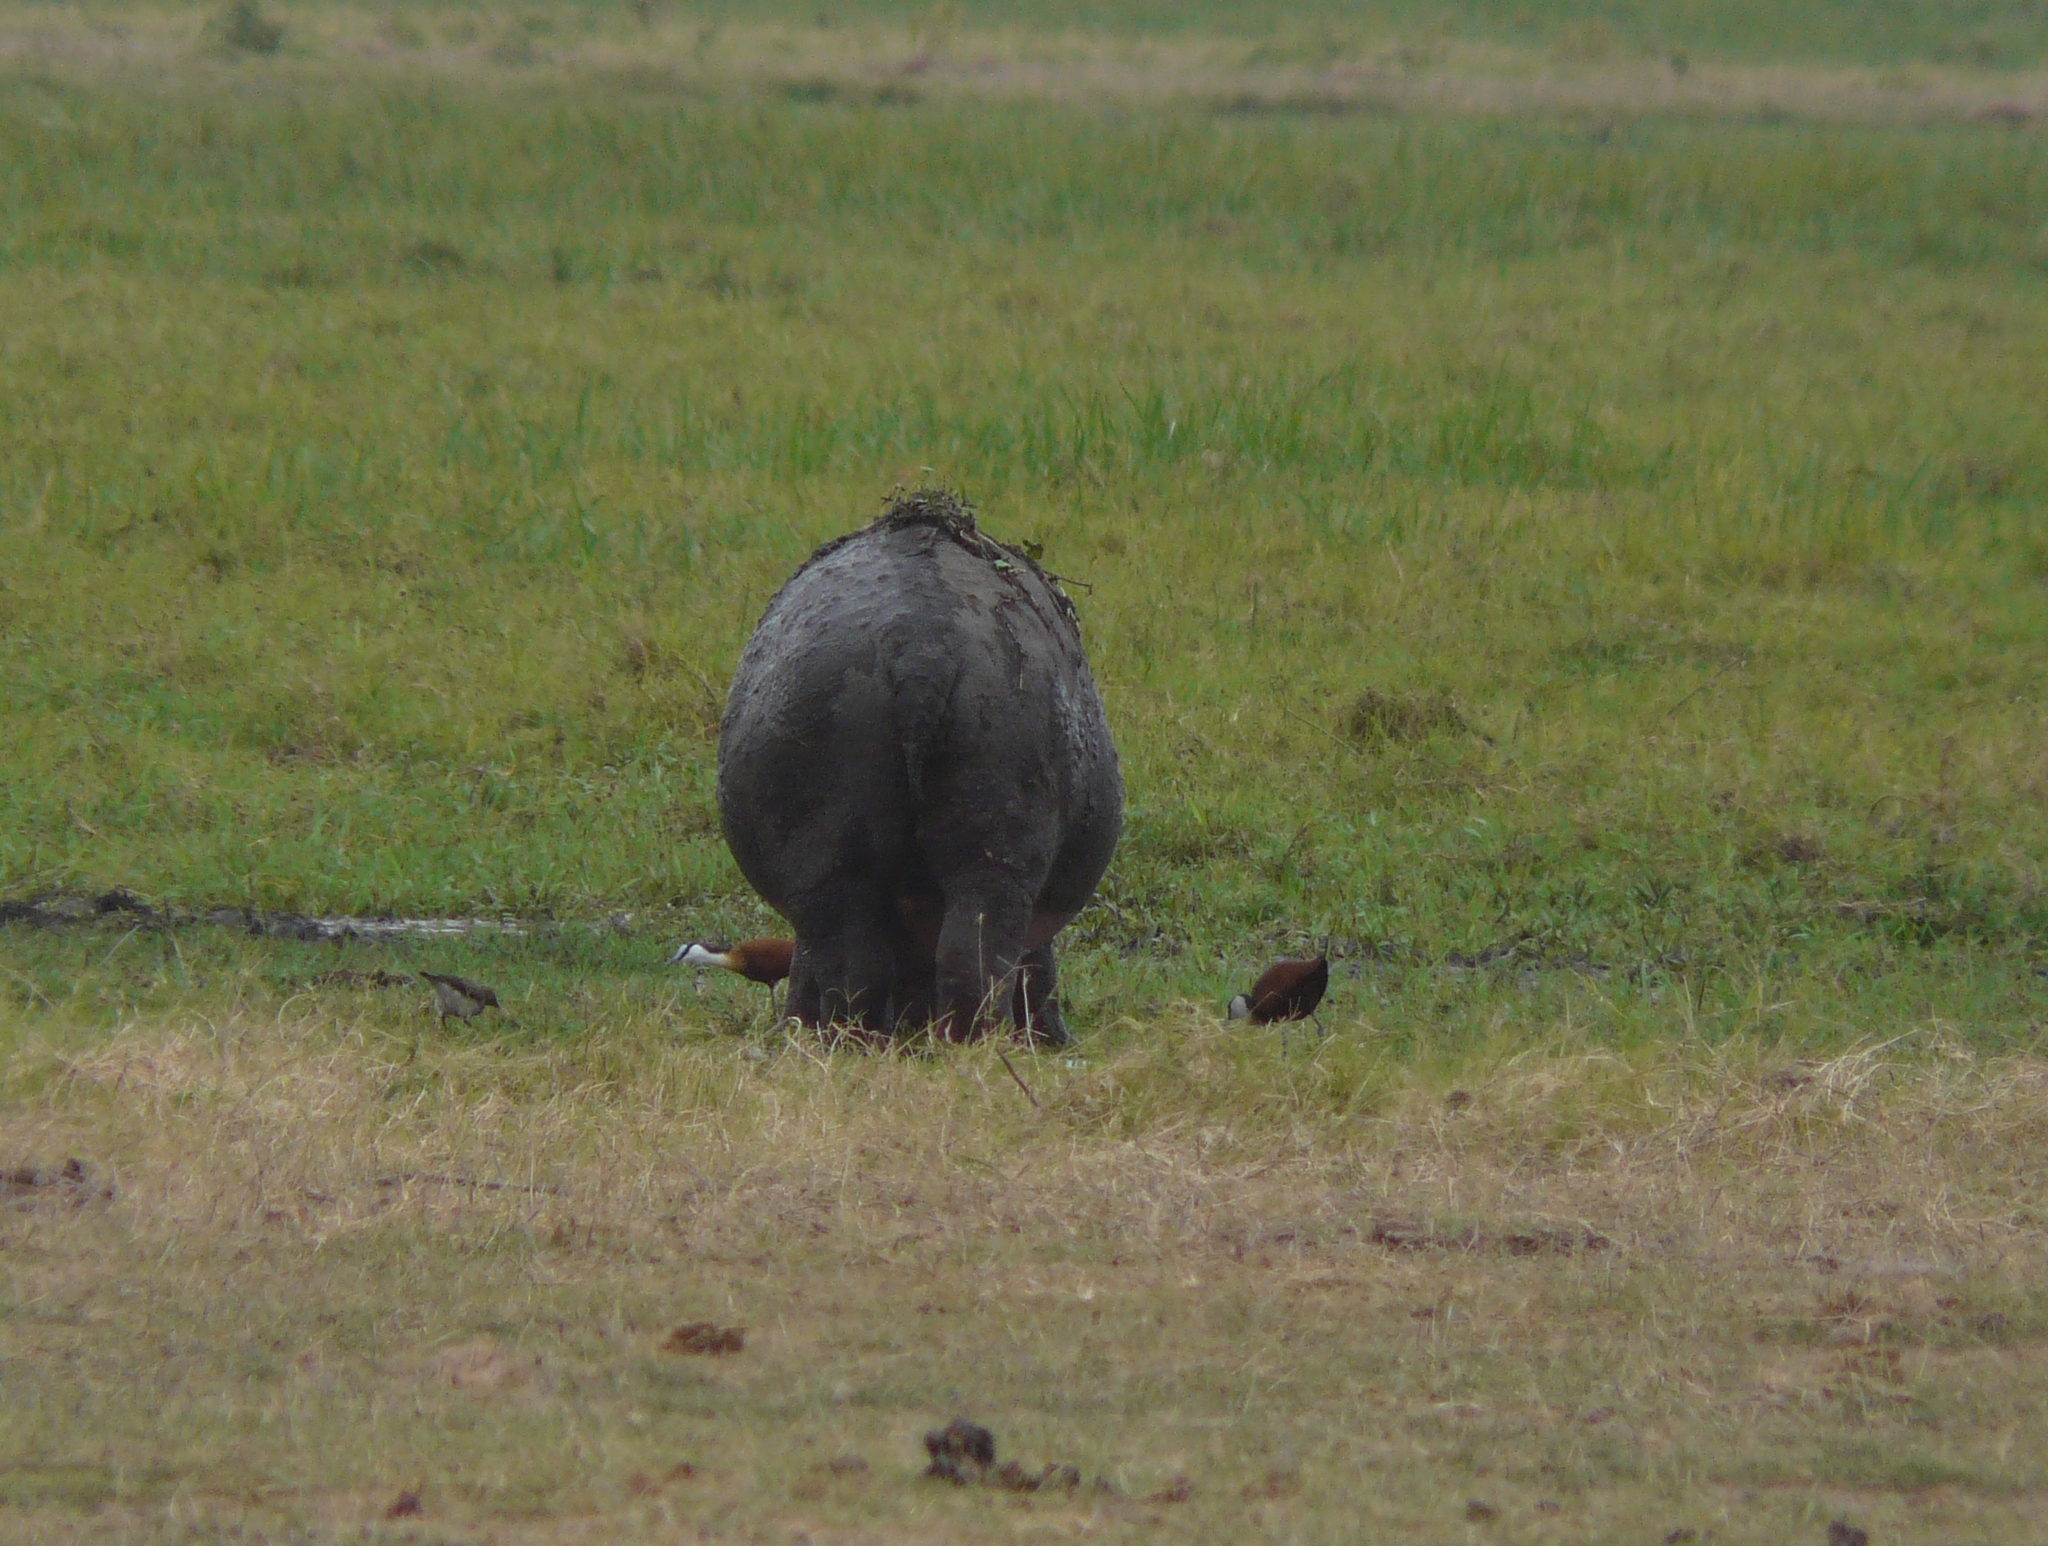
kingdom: Animalia
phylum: Chordata
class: Mammalia
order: Artiodactyla
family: Hippopotamidae
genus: Hippopotamus
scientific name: Hippopotamus amphibius
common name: Common hippopotamus
